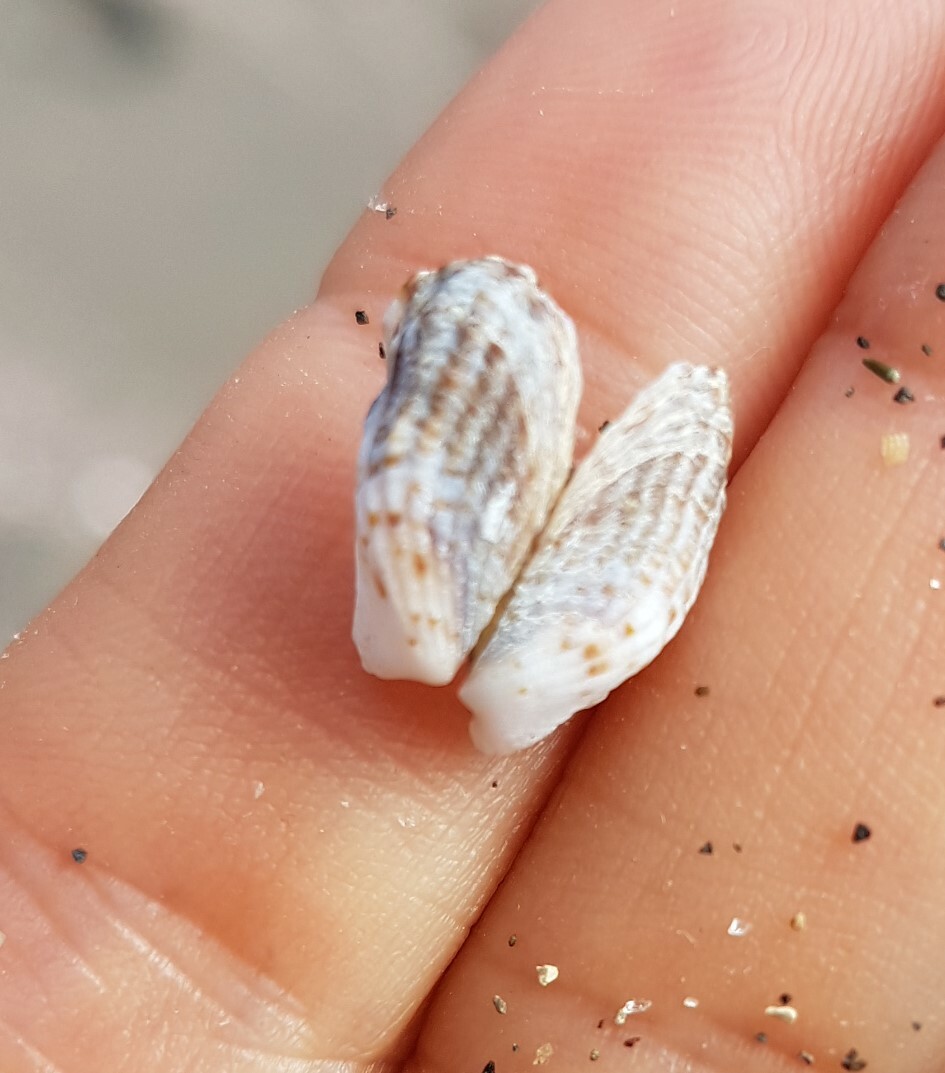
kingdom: Animalia
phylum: Mollusca
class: Bivalvia
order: Carditida
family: Carditidae
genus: Cardita
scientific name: Cardita calyculata
